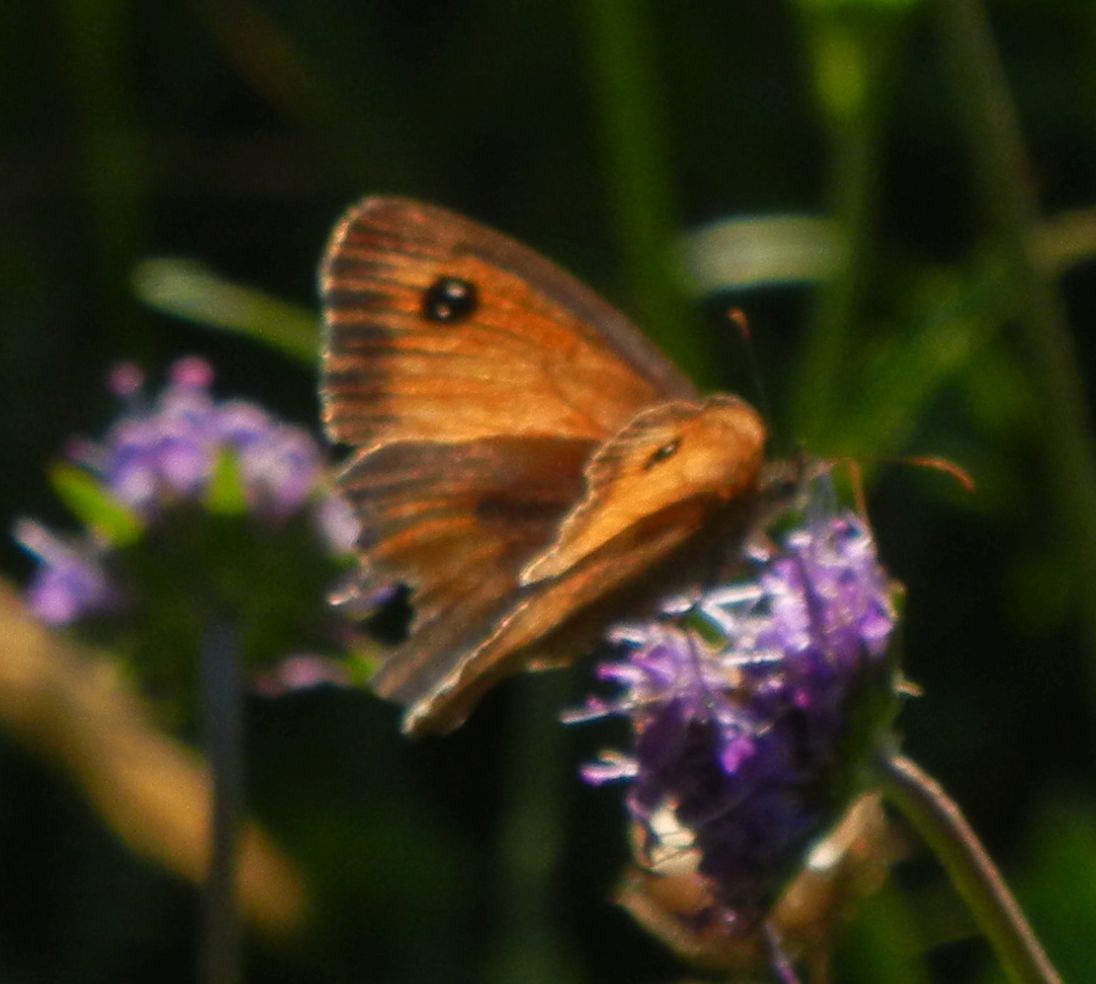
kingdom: Animalia
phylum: Arthropoda
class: Insecta
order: Lepidoptera
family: Nymphalidae
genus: Pyronia
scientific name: Pyronia tithonus
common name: Gatekeeper
